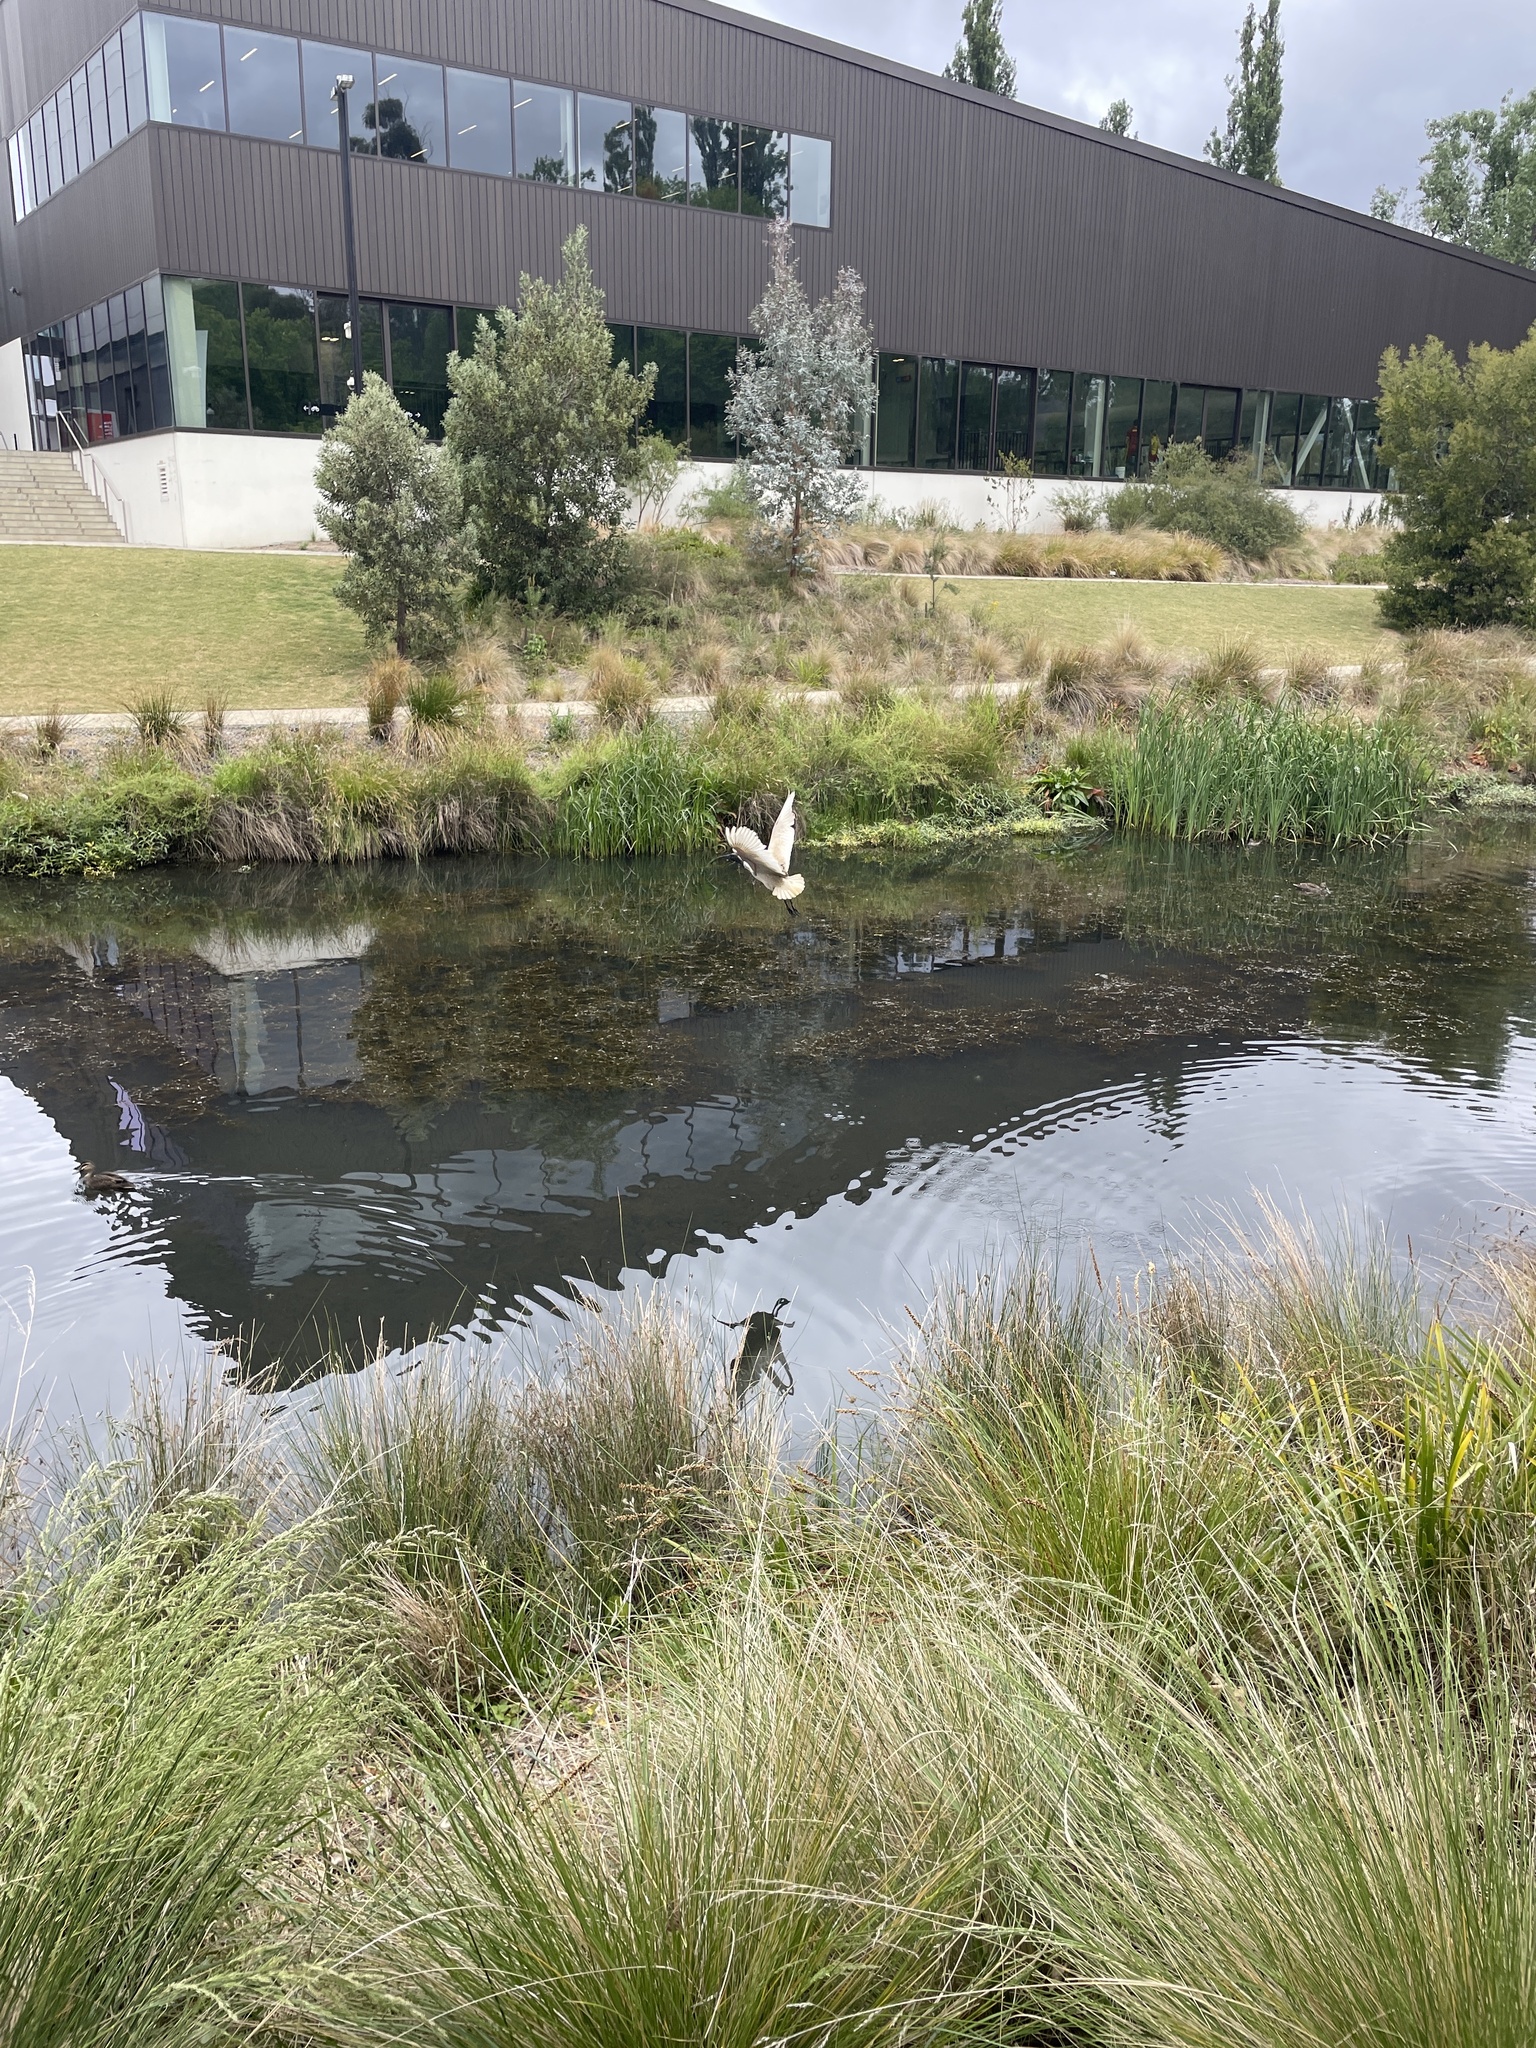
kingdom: Animalia
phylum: Chordata
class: Aves
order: Pelecaniformes
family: Threskiornithidae
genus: Threskiornis
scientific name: Threskiornis molucca
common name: Australian white ibis
